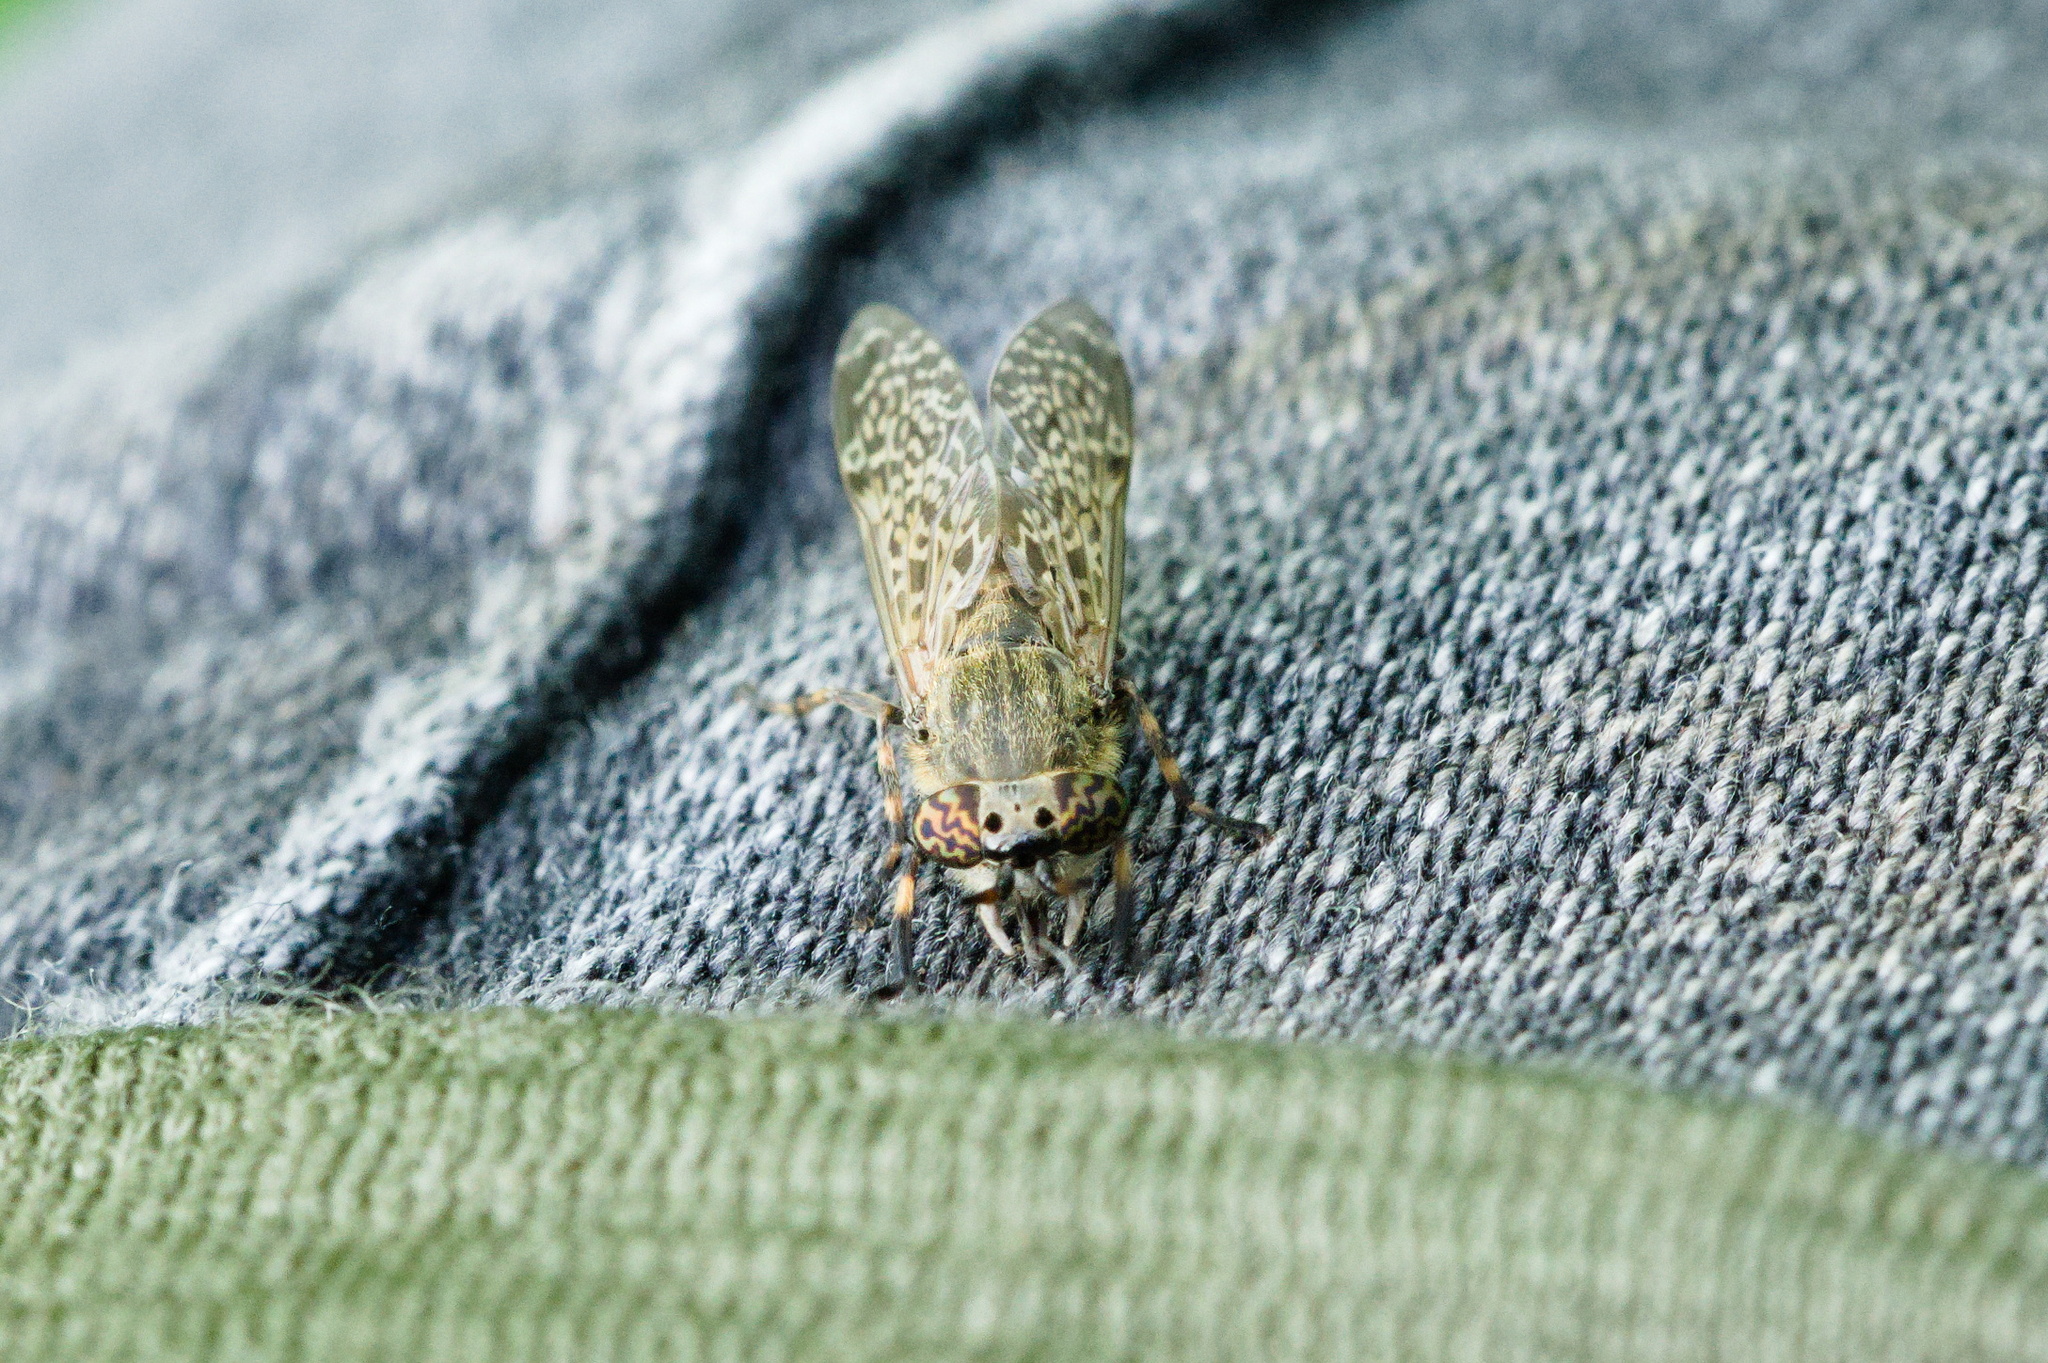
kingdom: Animalia
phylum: Arthropoda
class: Insecta
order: Diptera
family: Tabanidae
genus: Haematopota
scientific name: Haematopota pluvialis
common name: Common horse fly
